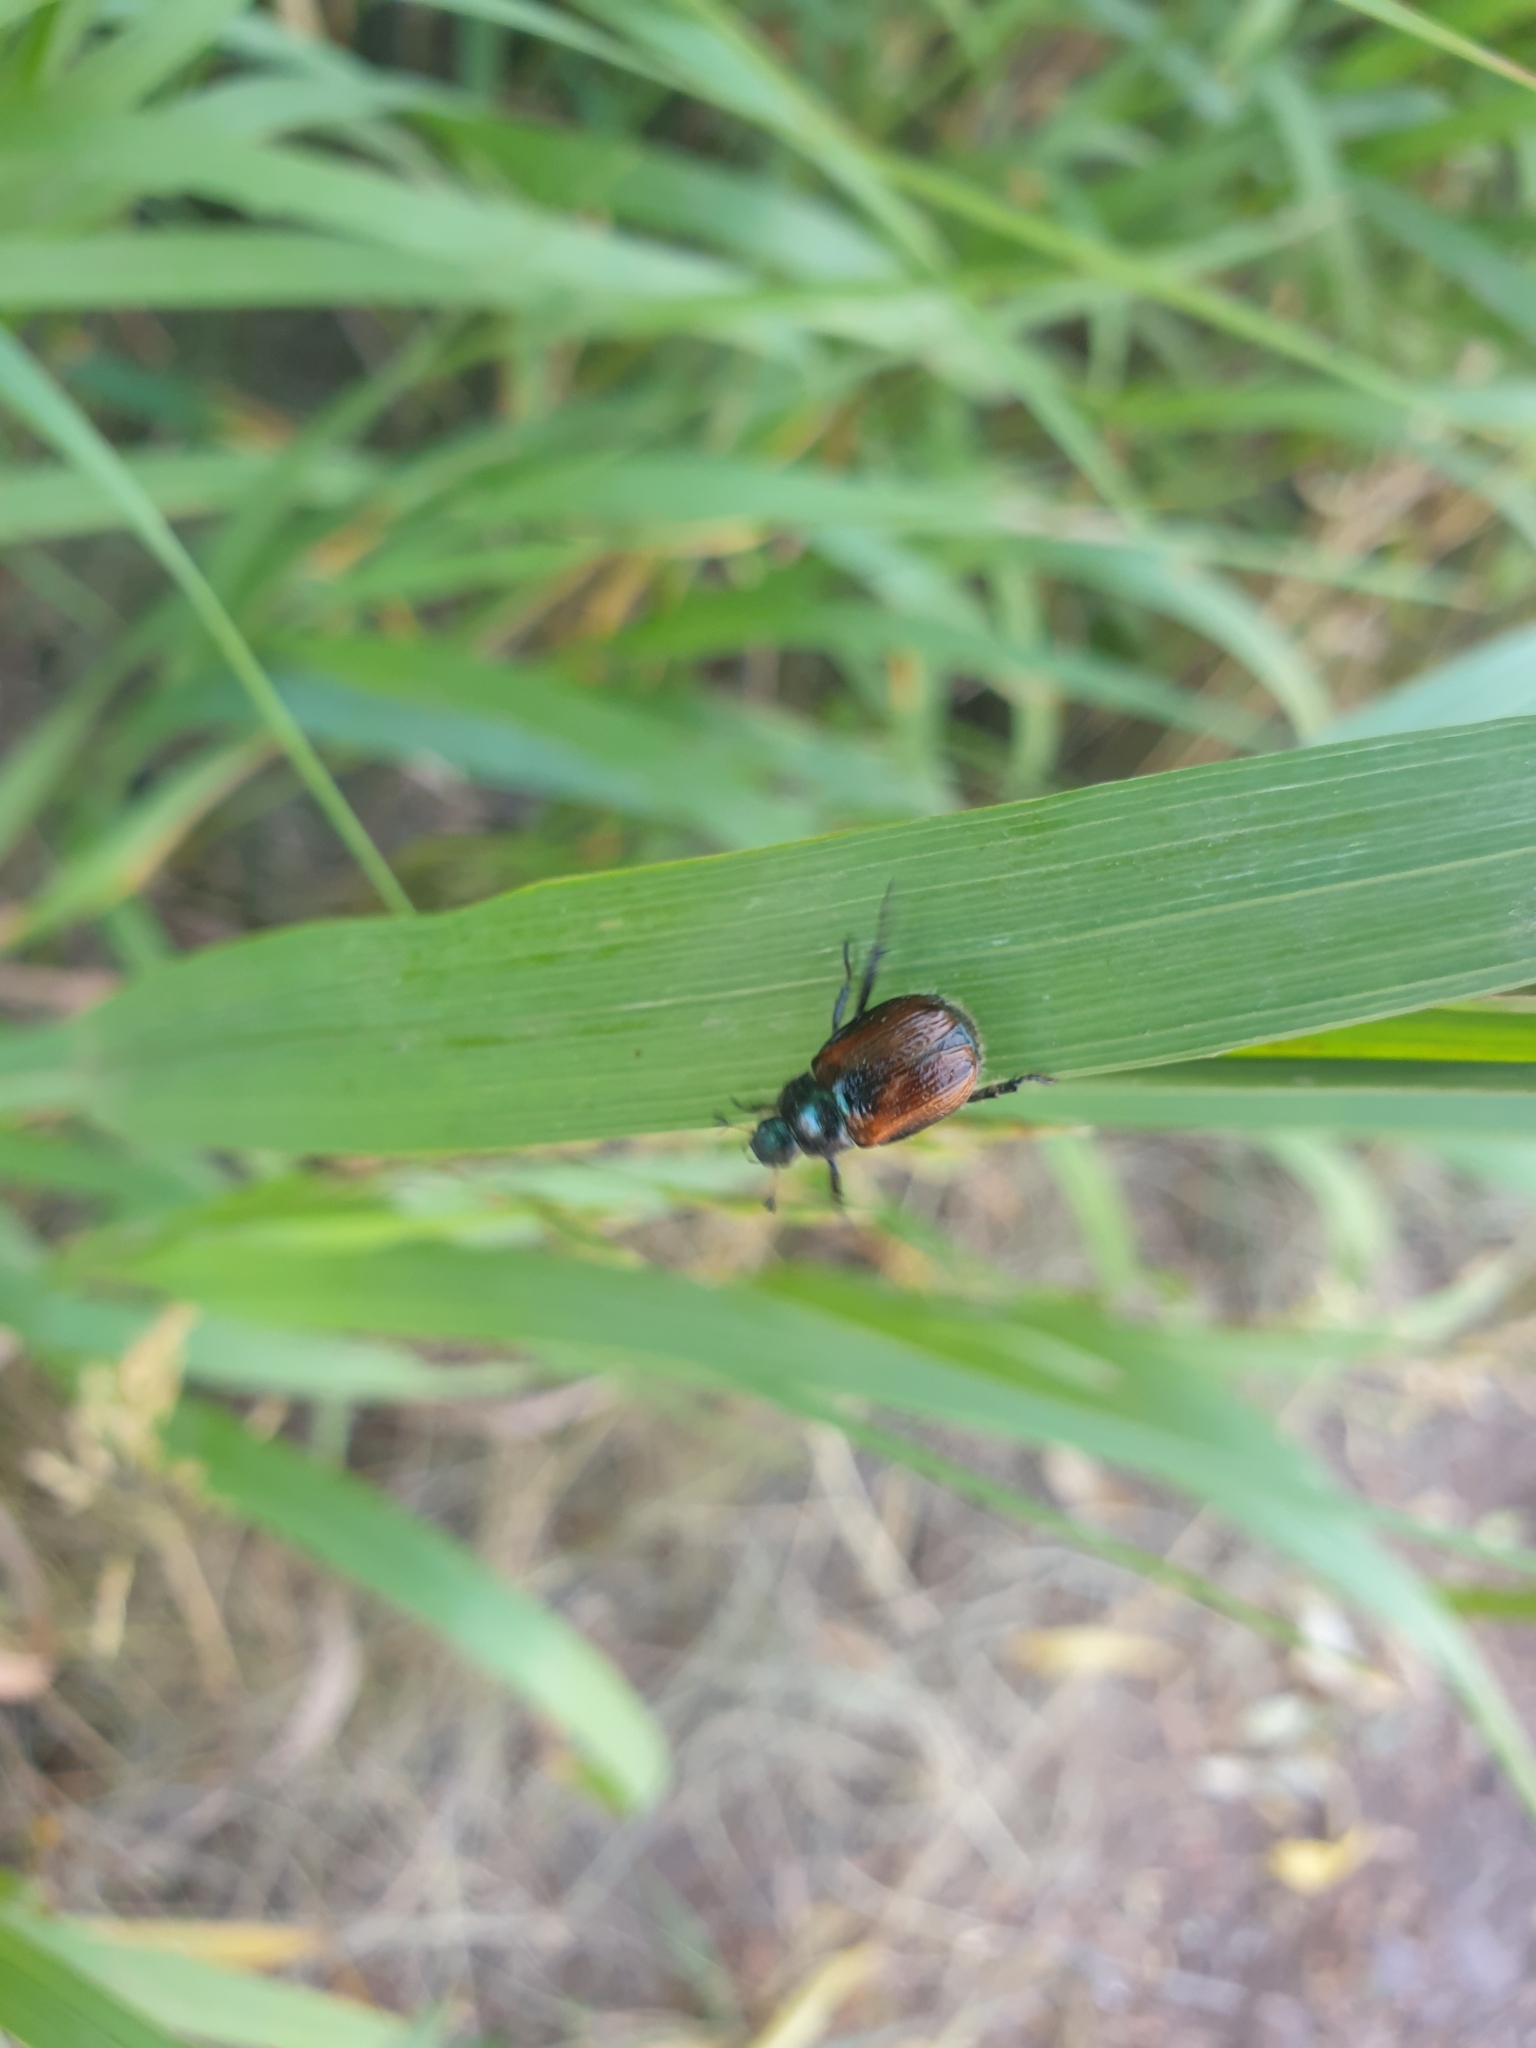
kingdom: Animalia
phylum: Arthropoda
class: Insecta
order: Coleoptera
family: Scarabaeidae
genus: Phyllopertha
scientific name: Phyllopertha horticola
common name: Garden chafer
